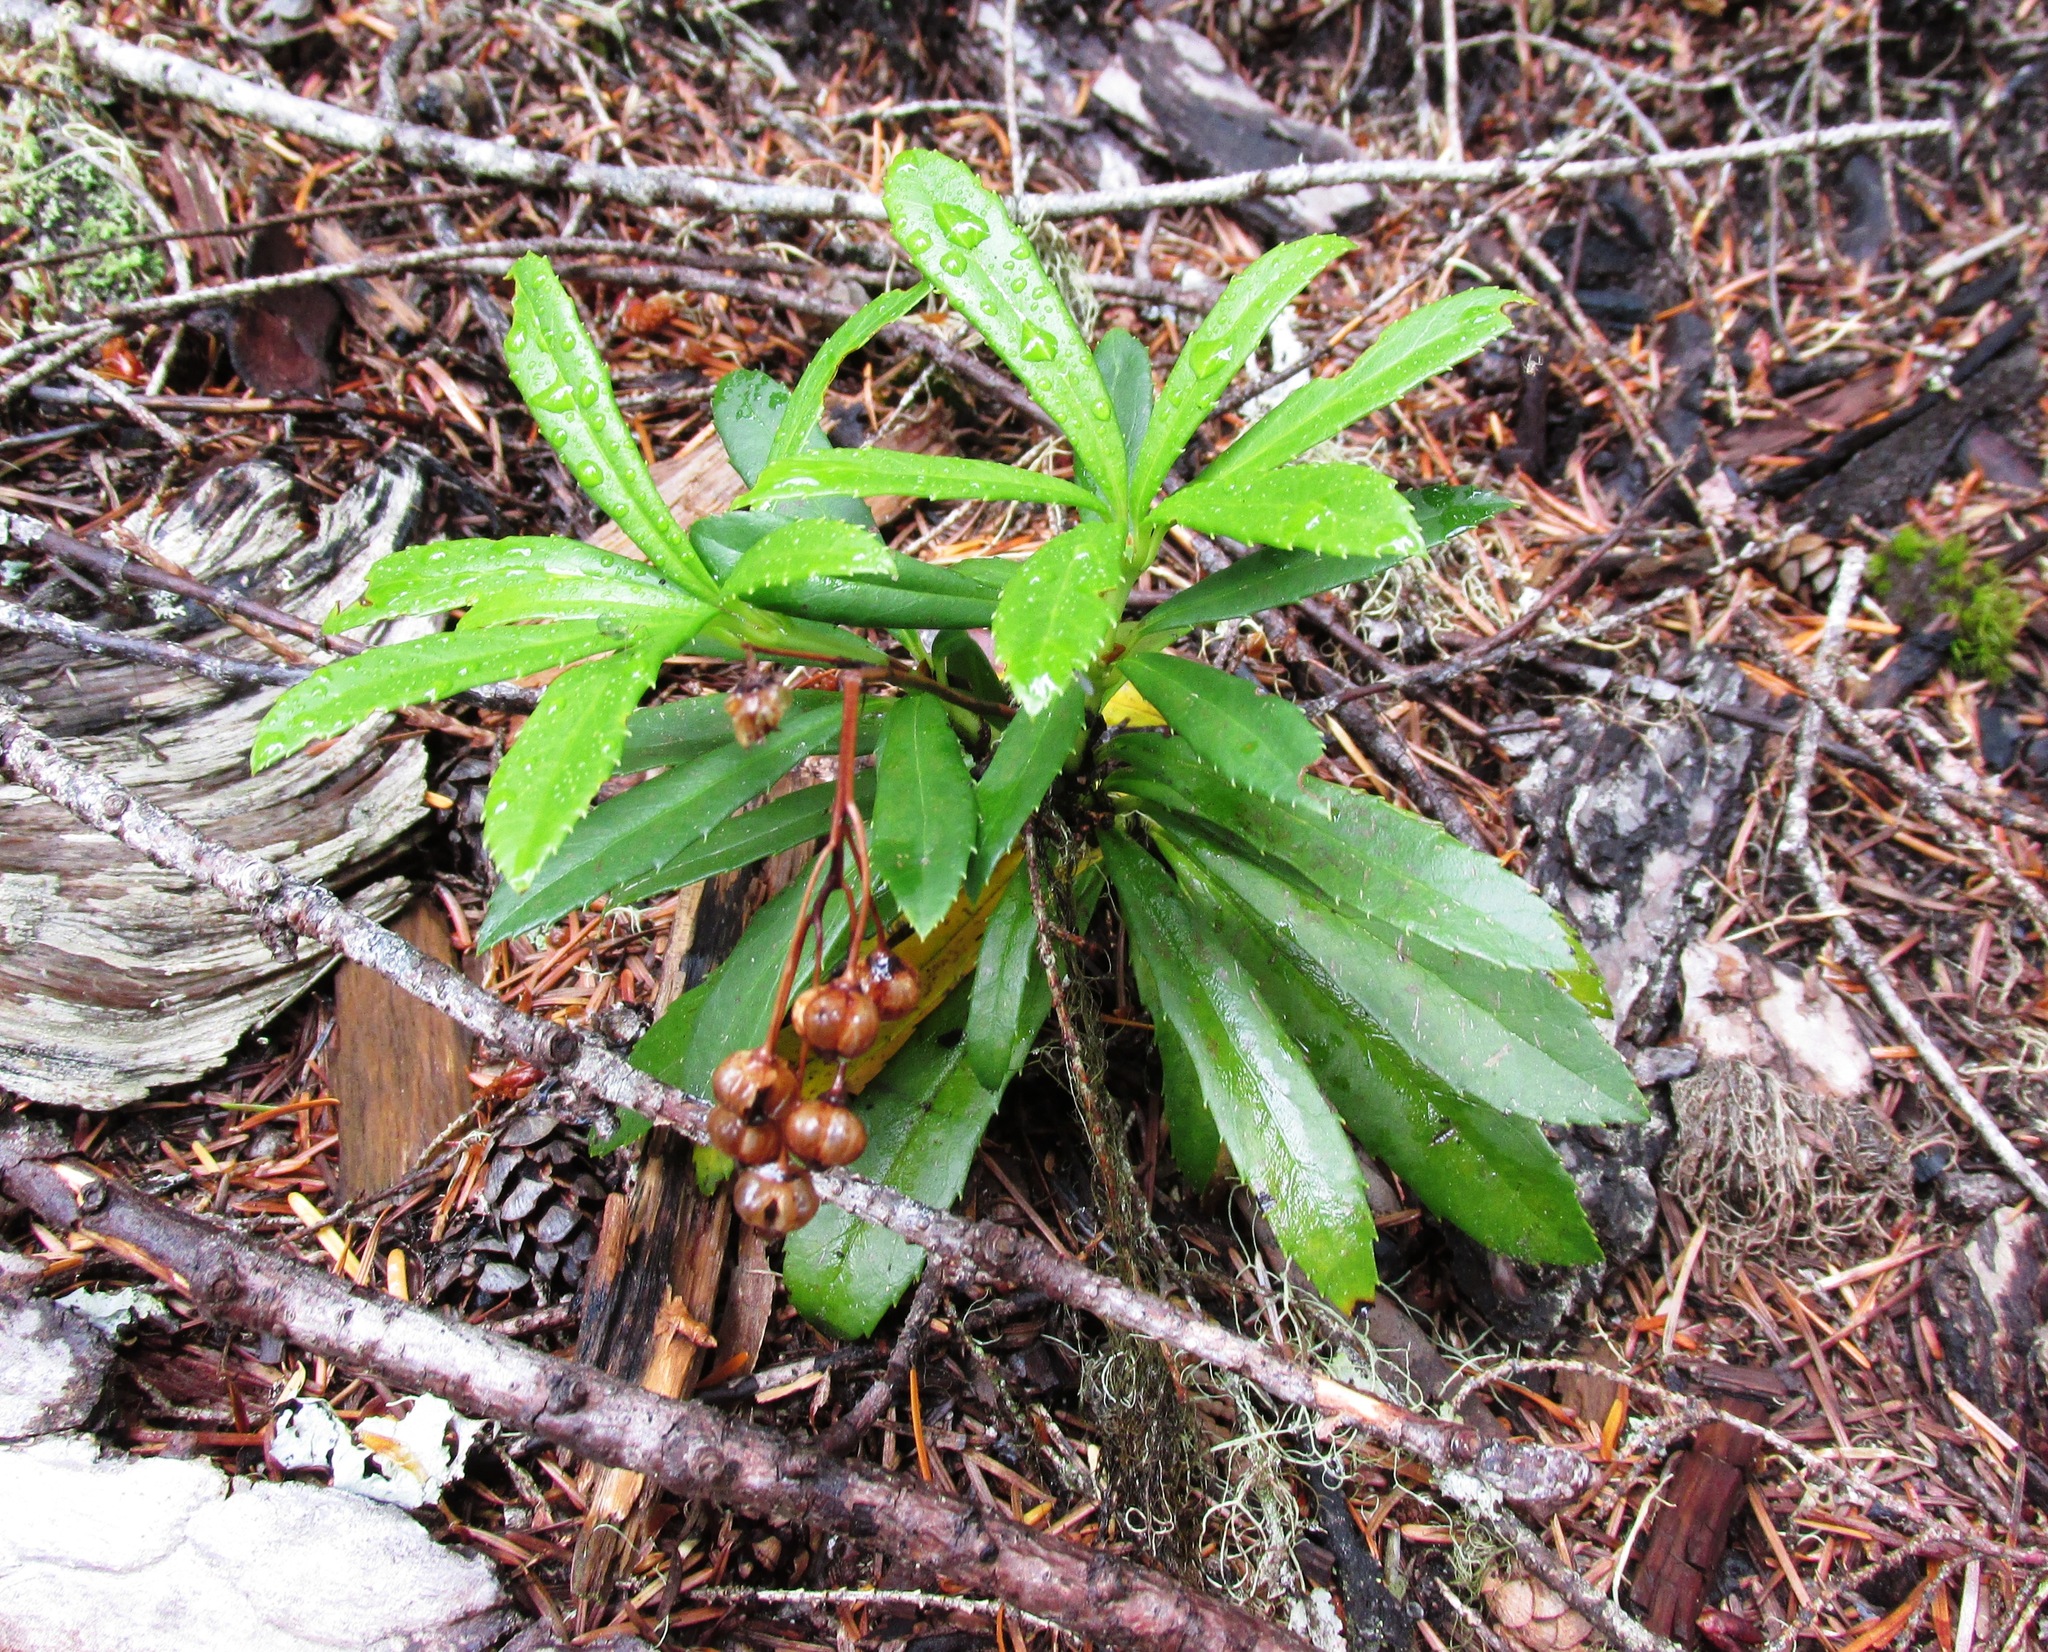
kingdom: Plantae
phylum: Tracheophyta
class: Magnoliopsida
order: Ericales
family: Ericaceae
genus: Chimaphila
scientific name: Chimaphila umbellata
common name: Pipsissewa
